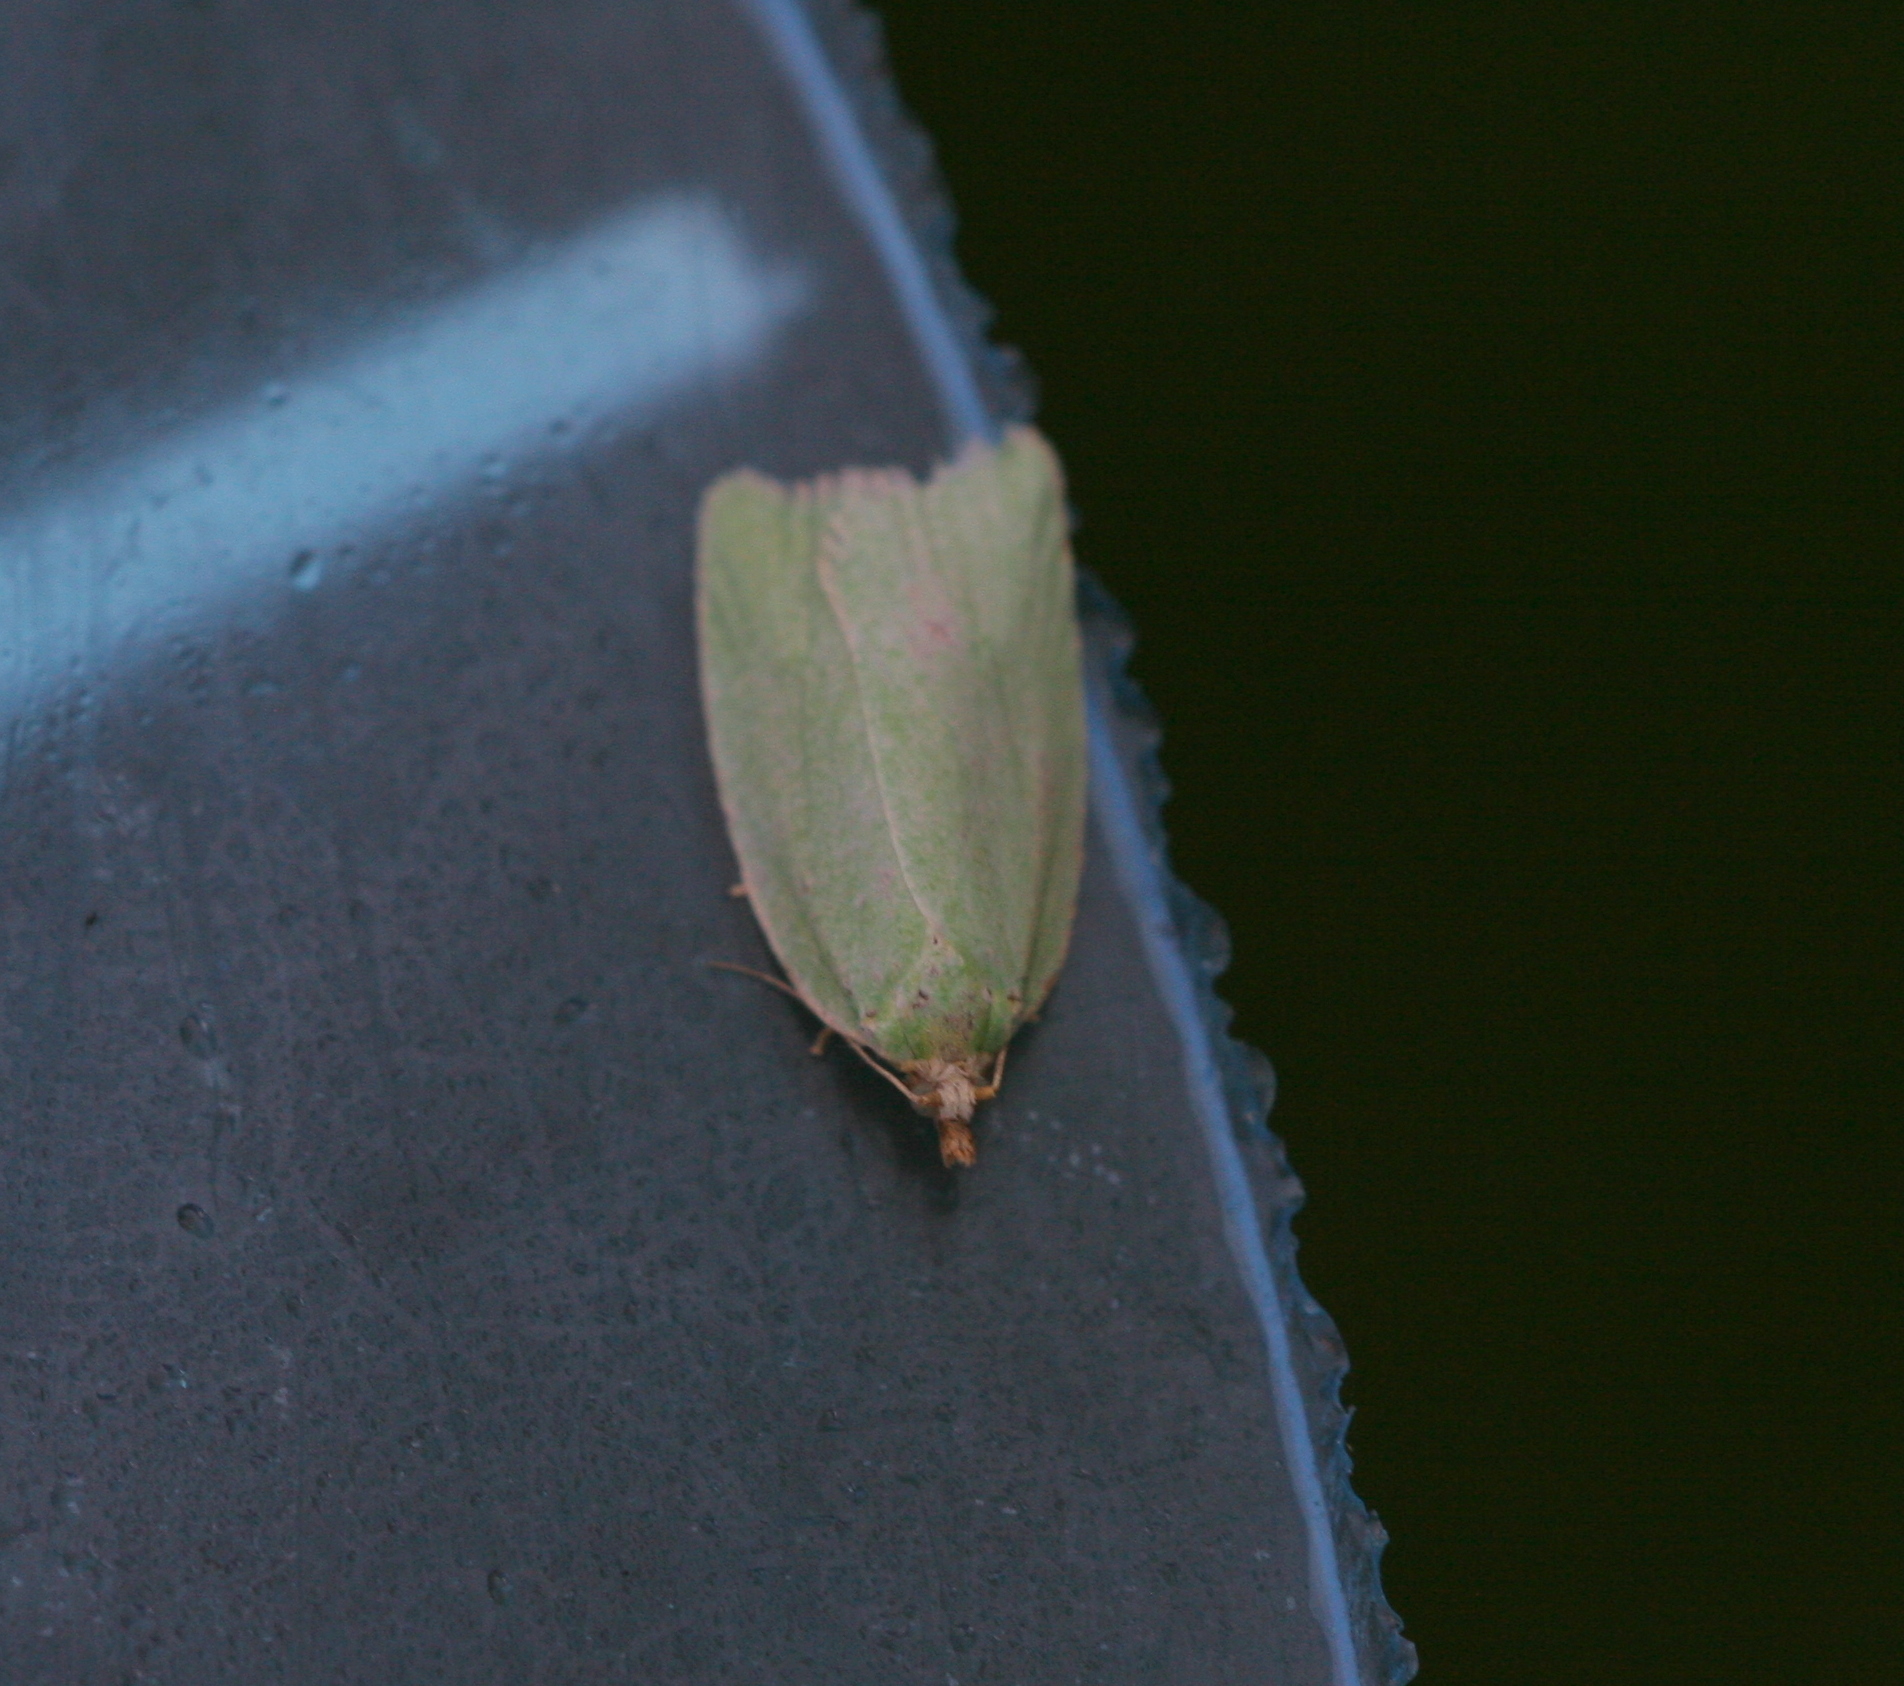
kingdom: Animalia
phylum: Arthropoda
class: Insecta
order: Lepidoptera
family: Tortricidae
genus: Tortrix
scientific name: Tortrix viridana
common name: Green oak tortrix
